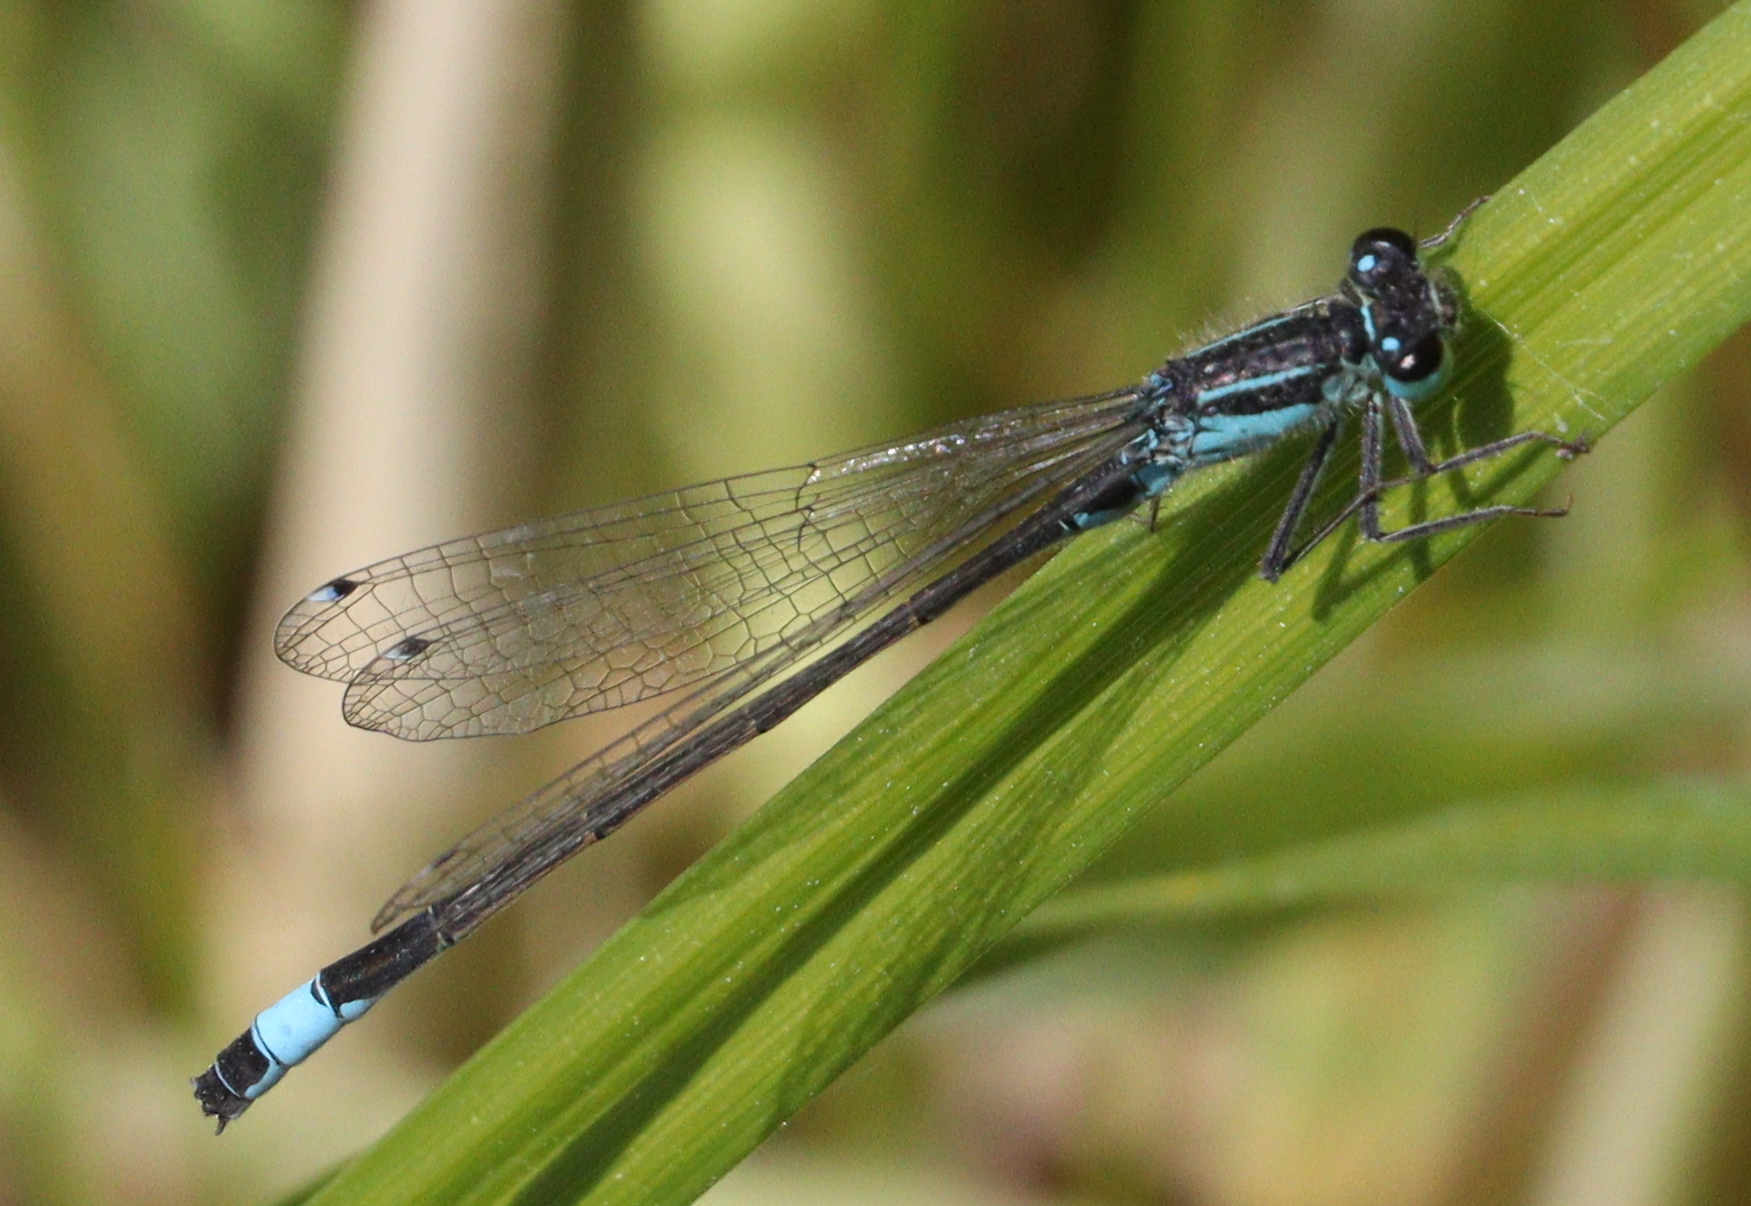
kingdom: Animalia
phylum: Arthropoda
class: Insecta
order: Odonata
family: Coenagrionidae
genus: Ischnura
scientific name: Ischnura elegans
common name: Blue-tailed damselfly
